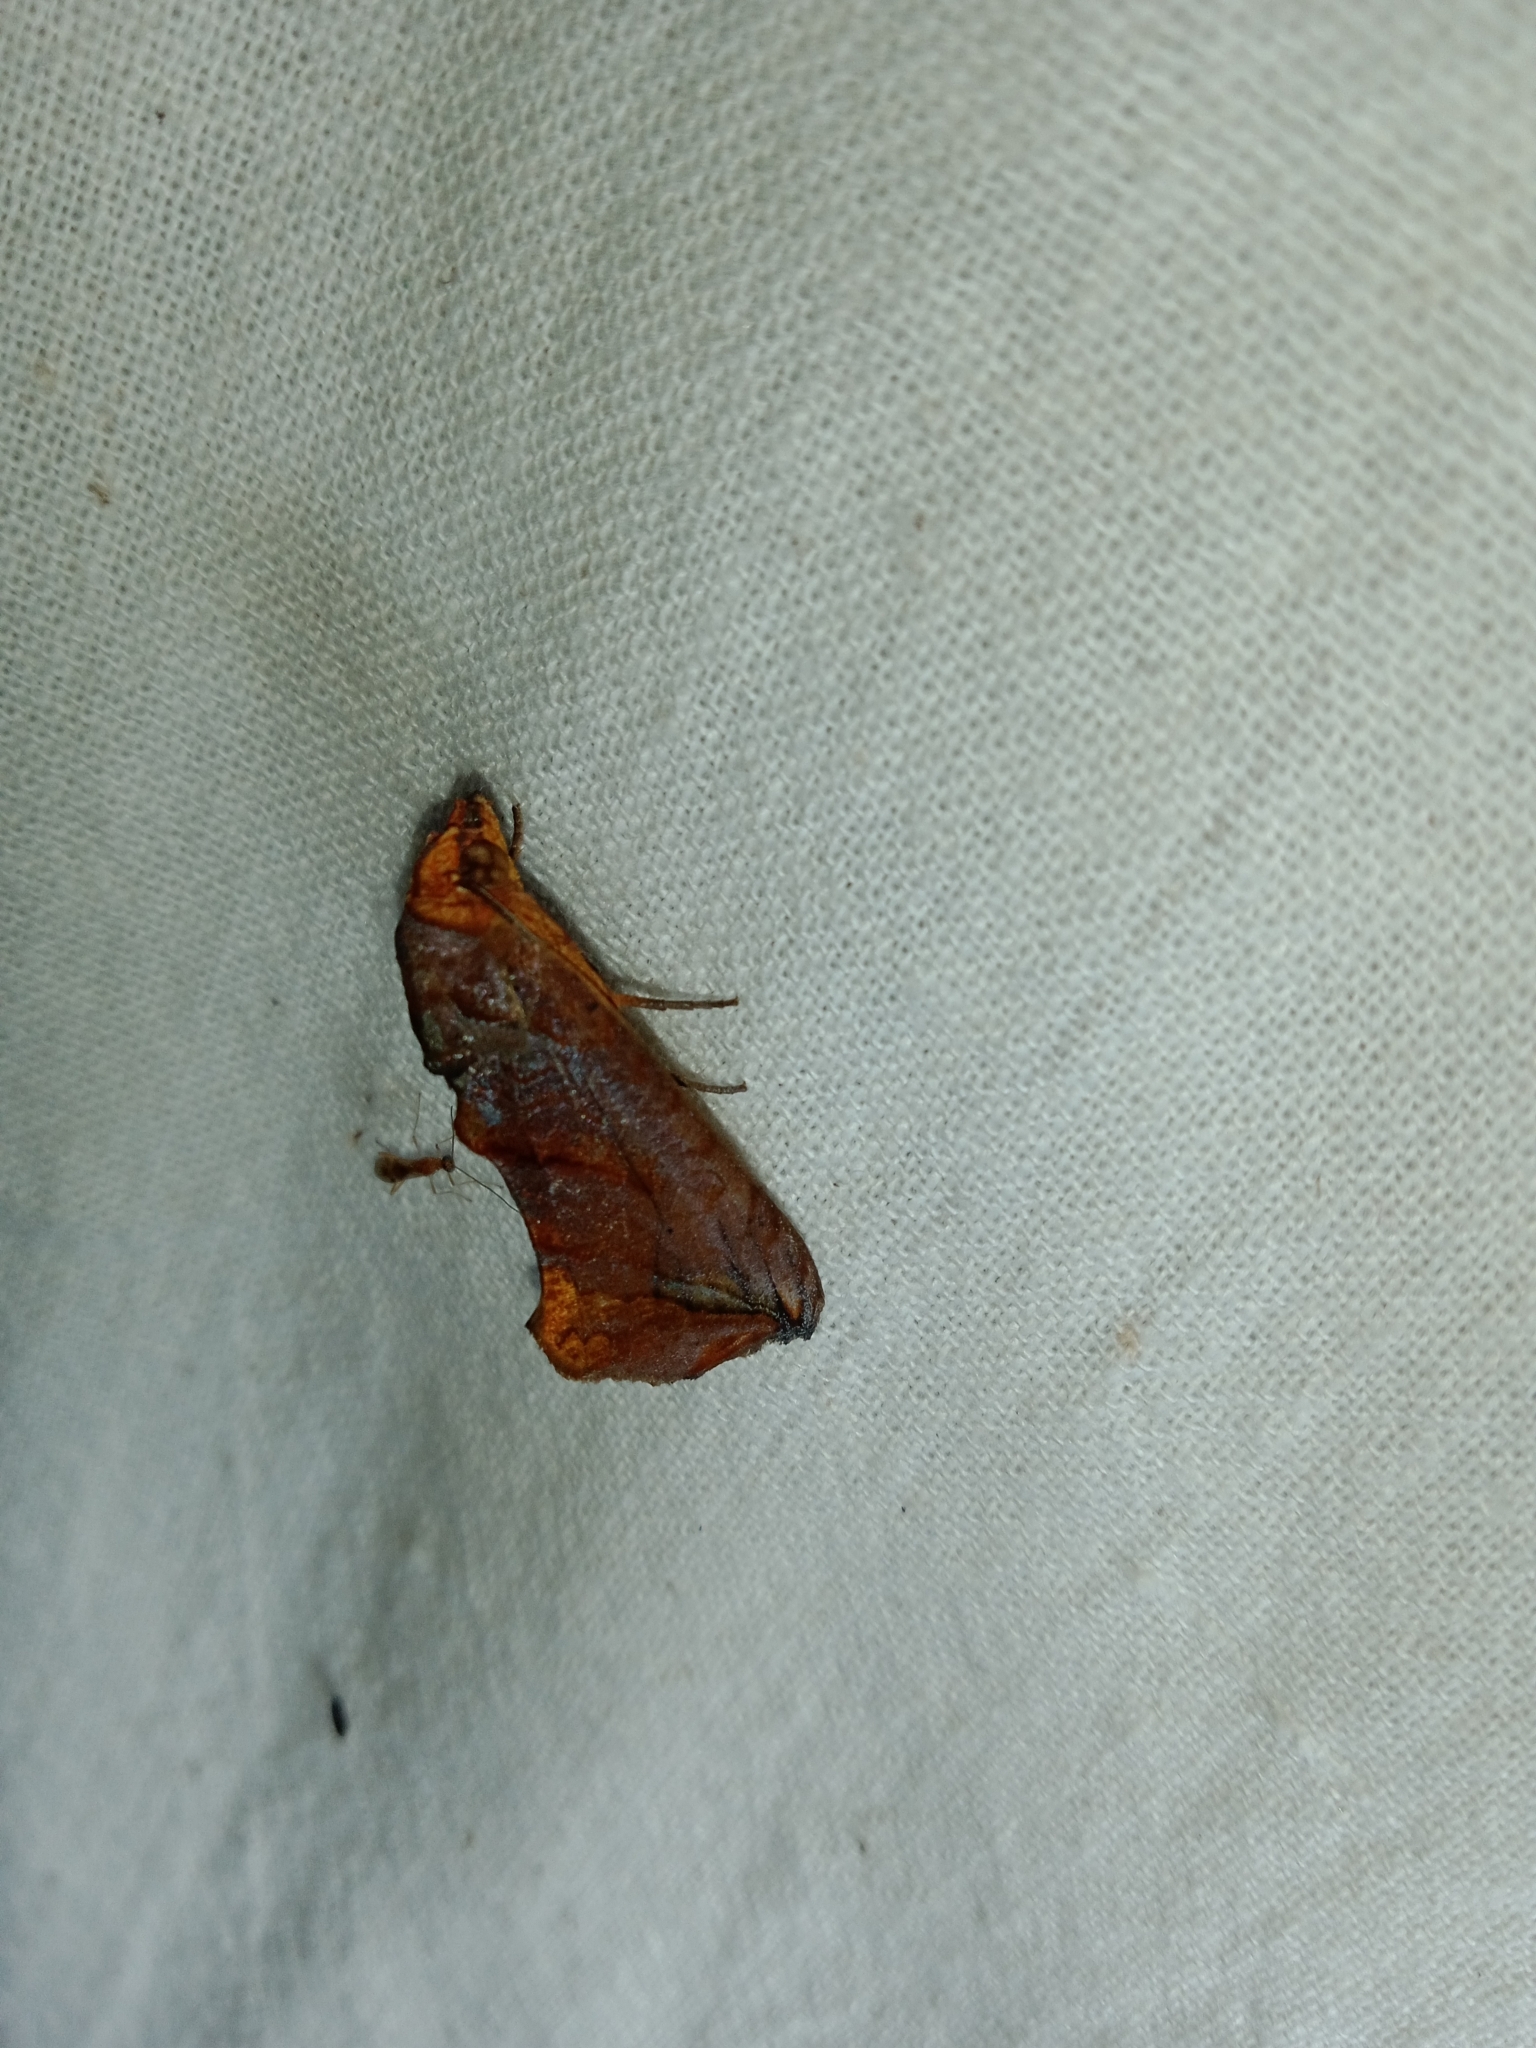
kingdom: Animalia
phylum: Arthropoda
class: Insecta
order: Lepidoptera
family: Erebidae
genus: Oraesia
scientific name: Oraesia emarginata
